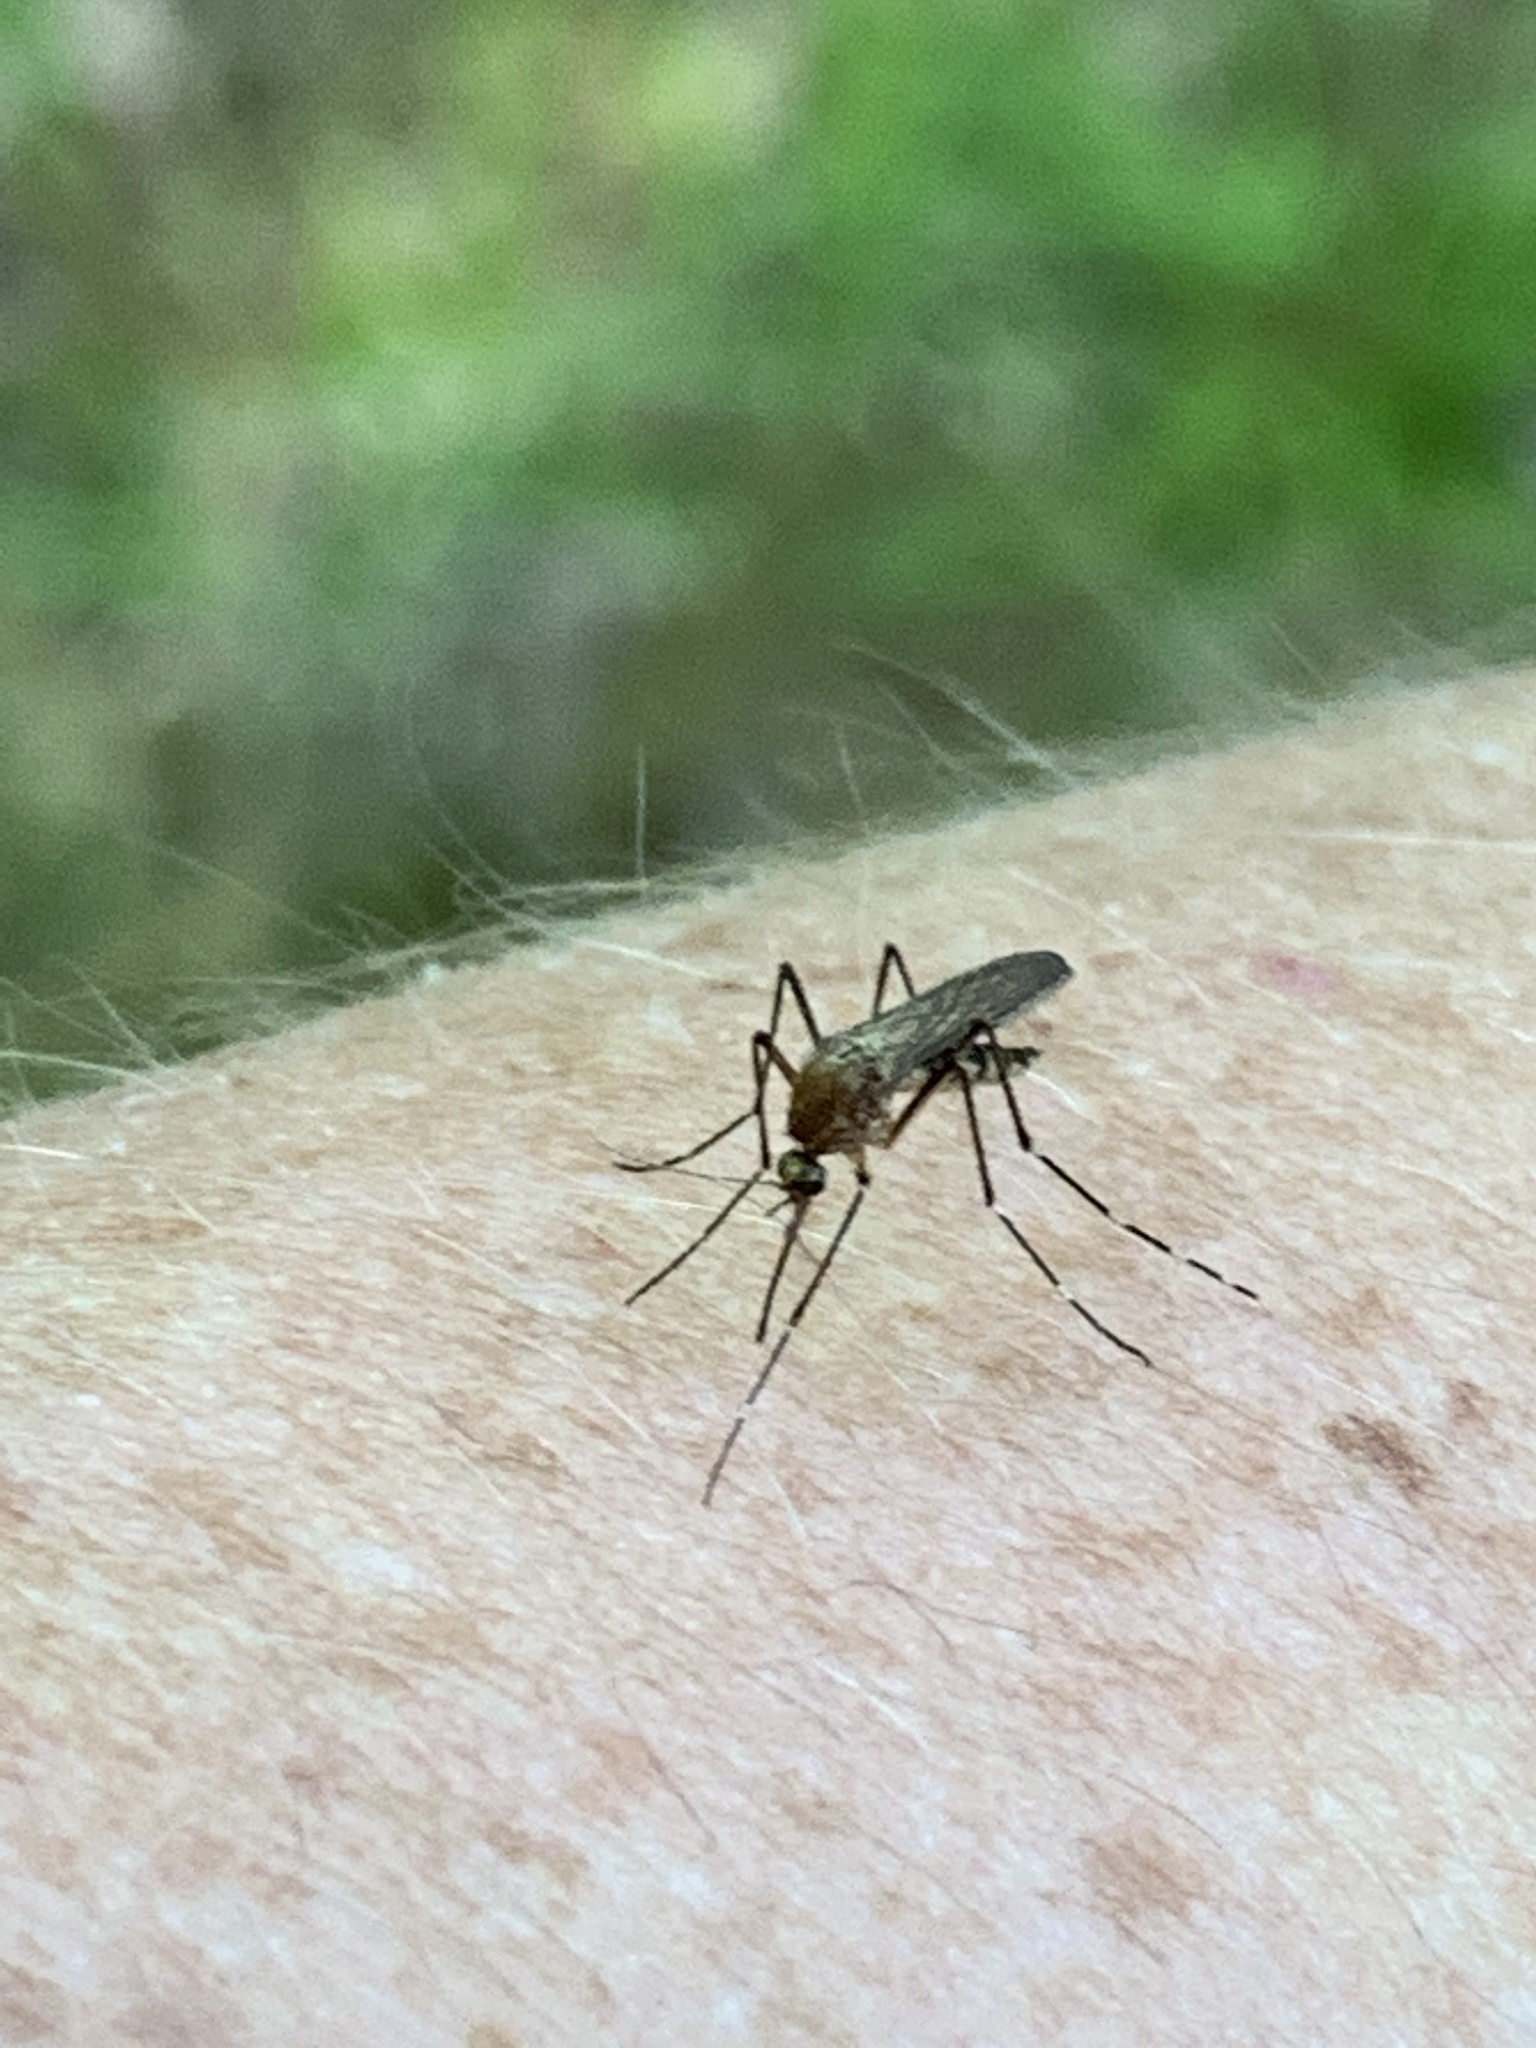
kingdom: Animalia
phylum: Arthropoda
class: Insecta
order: Diptera
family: Culicidae
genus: Aedes
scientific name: Aedes japonicus
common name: Asian bush mosquito
